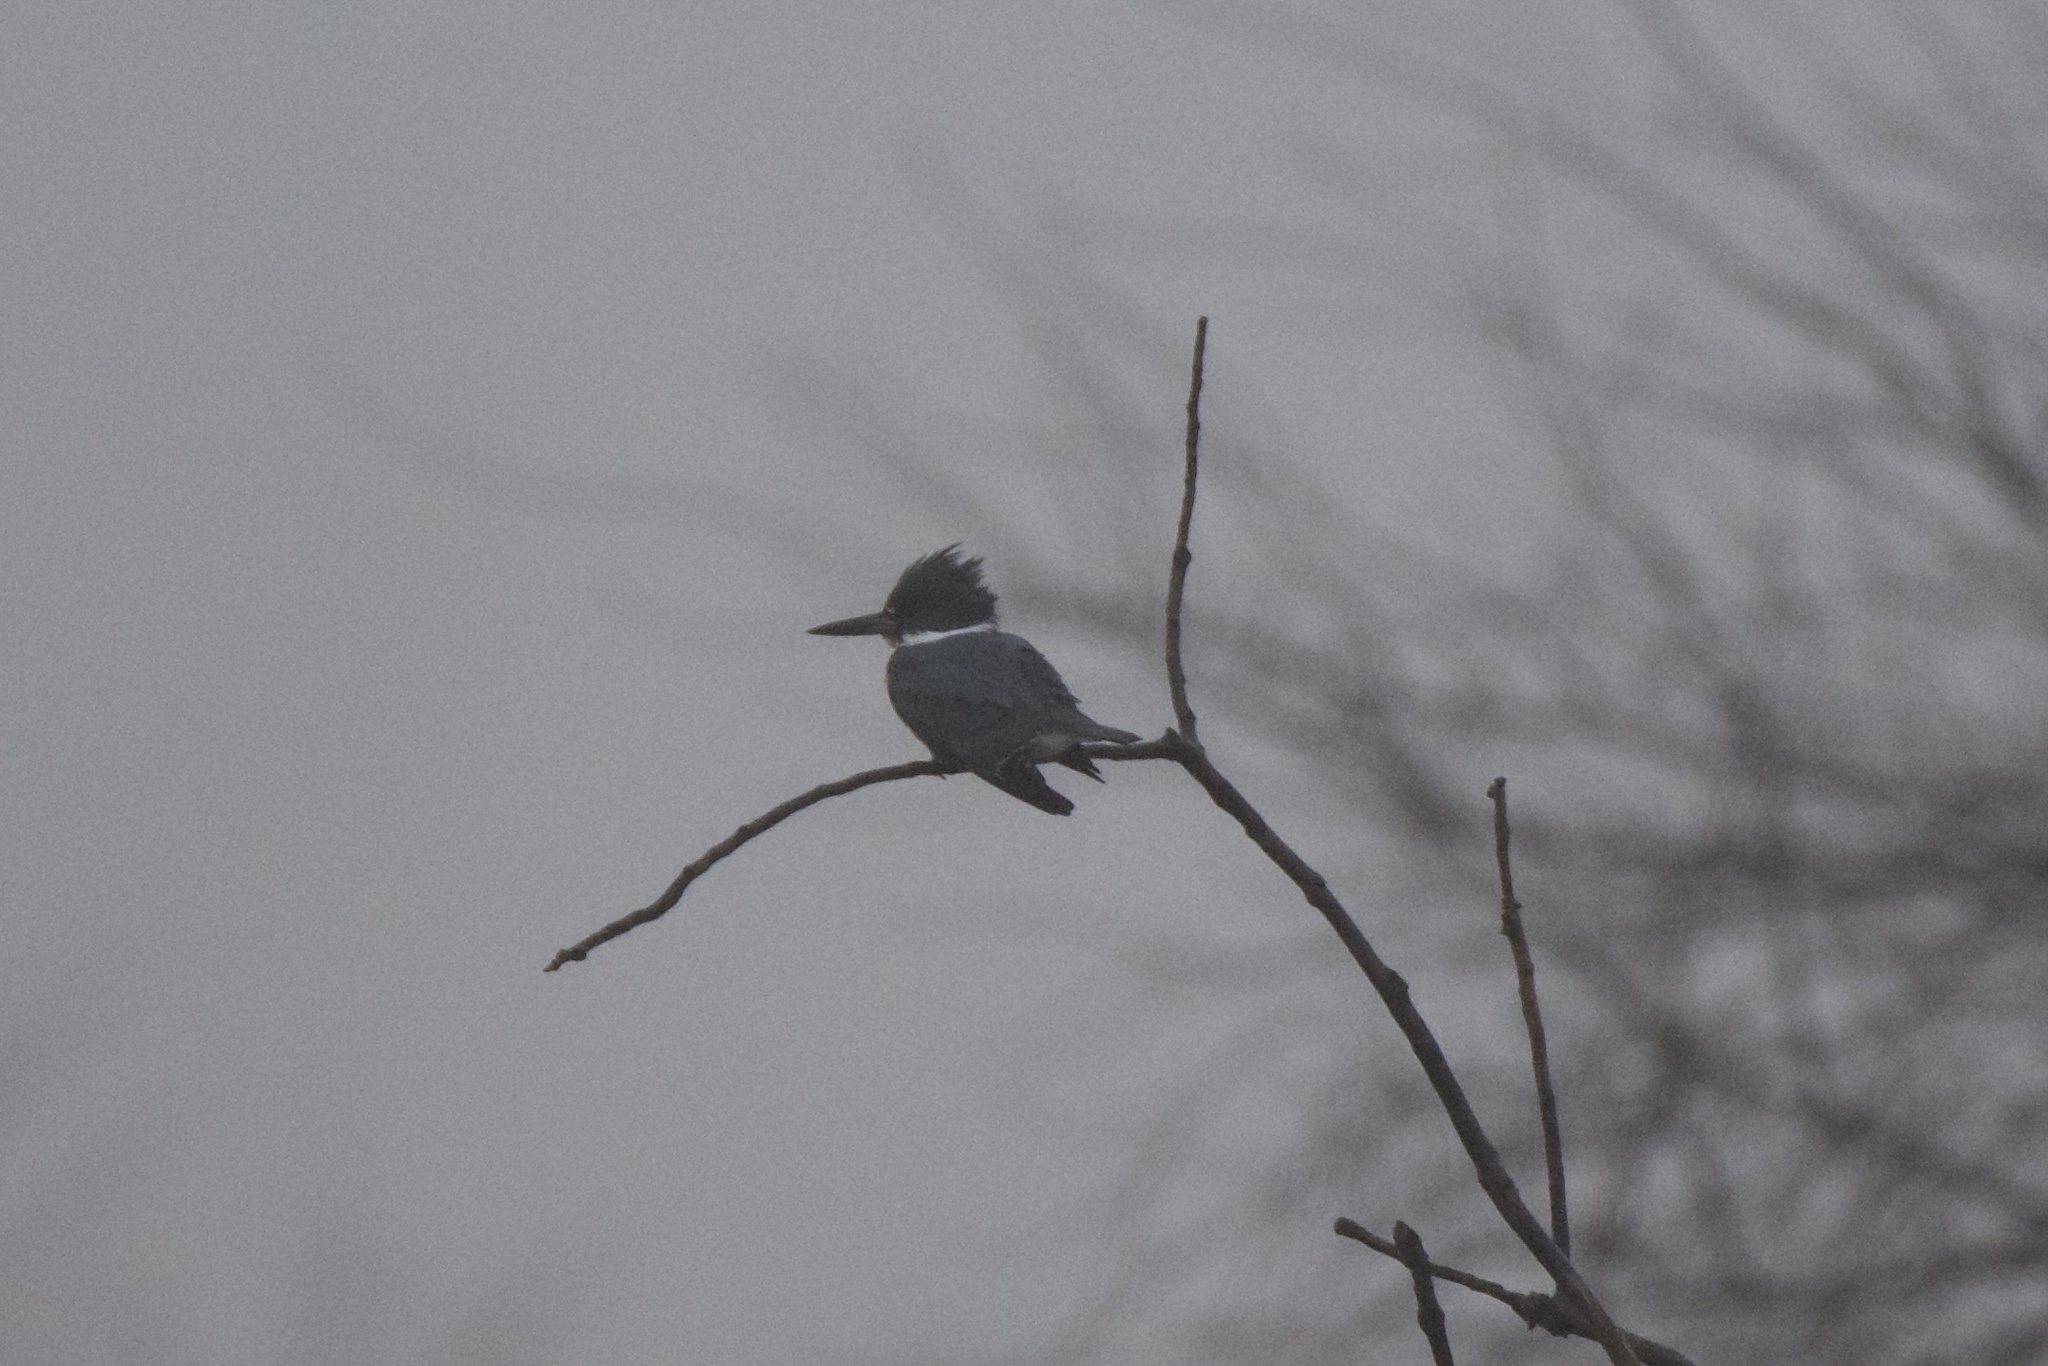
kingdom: Animalia
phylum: Chordata
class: Aves
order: Coraciiformes
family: Alcedinidae
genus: Megaceryle
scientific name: Megaceryle alcyon
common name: Belted kingfisher
